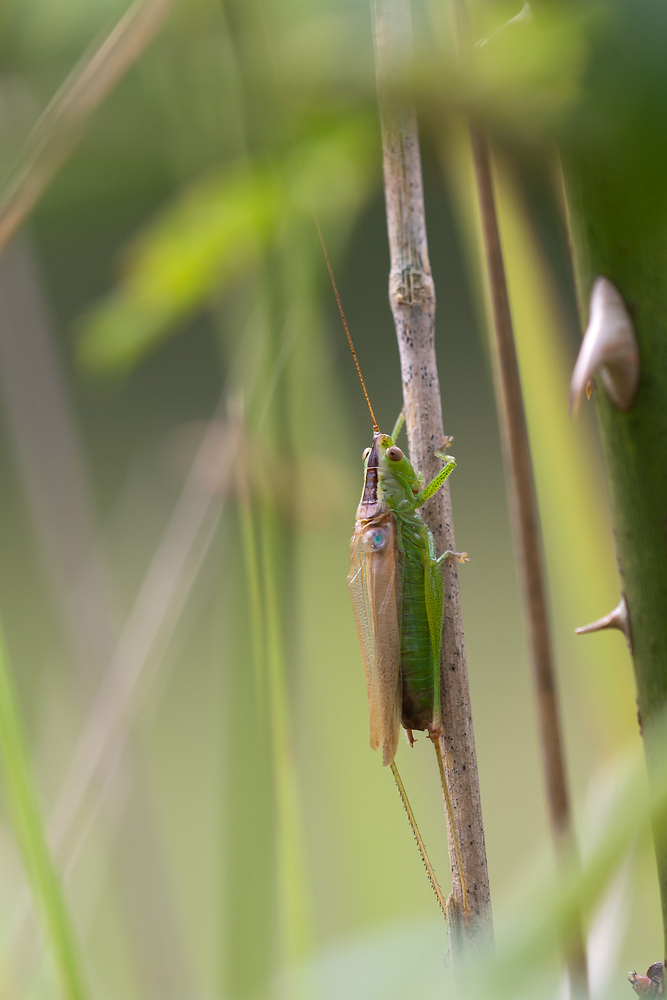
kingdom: Animalia
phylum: Arthropoda
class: Insecta
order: Orthoptera
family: Tettigoniidae
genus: Conocephalus
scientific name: Conocephalus fuscus
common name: Long-winged conehead
